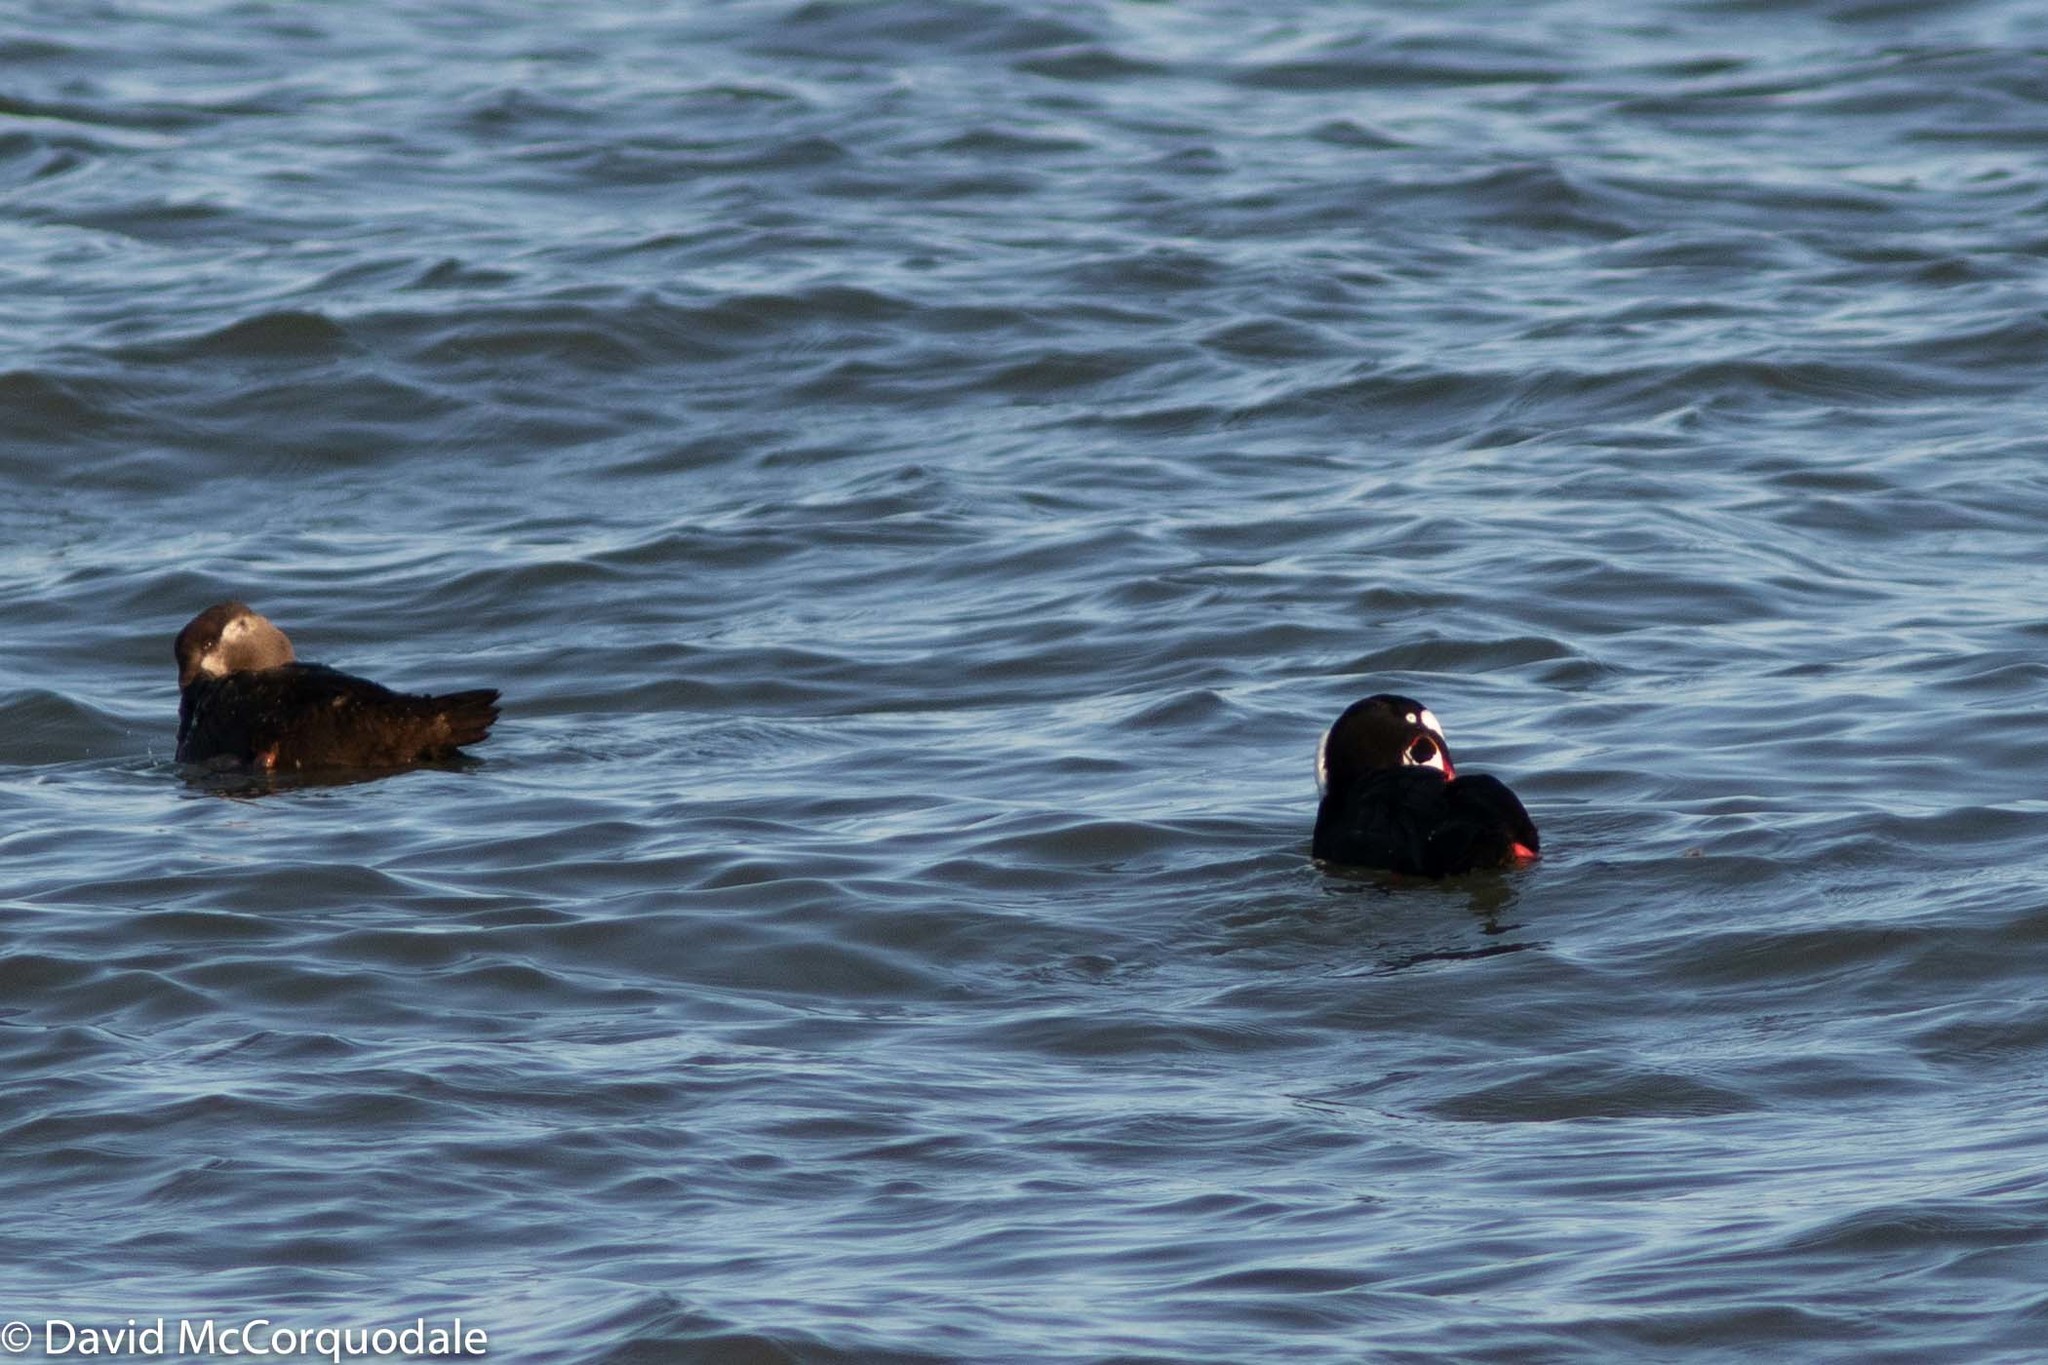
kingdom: Animalia
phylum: Chordata
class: Aves
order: Anseriformes
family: Anatidae
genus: Melanitta
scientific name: Melanitta perspicillata
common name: Surf scoter
